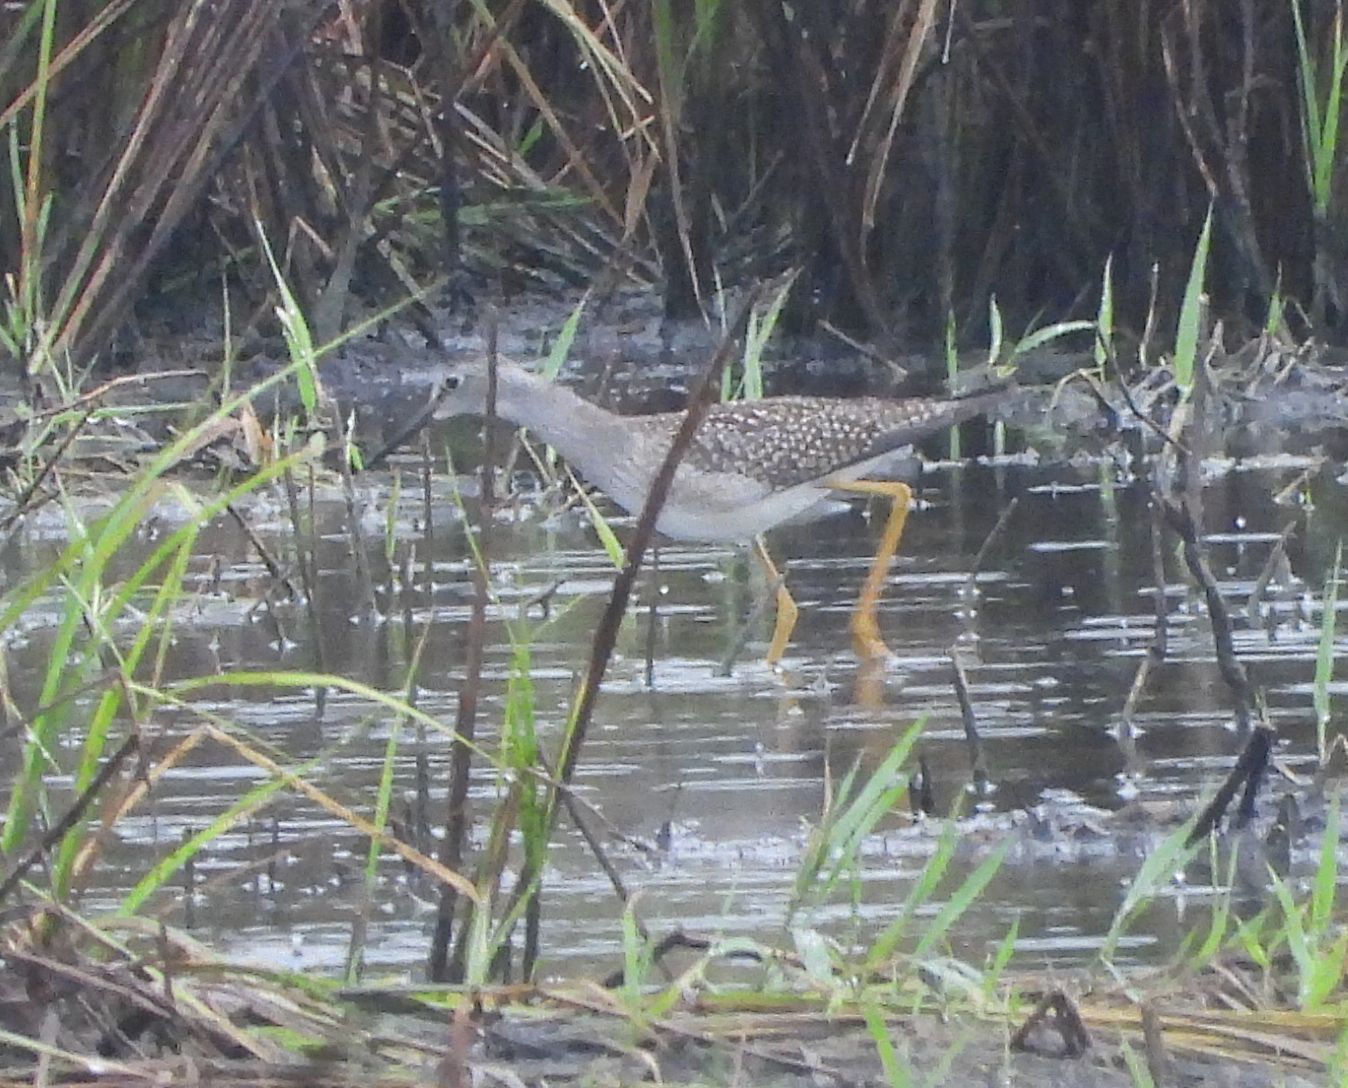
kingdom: Animalia
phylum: Chordata
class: Aves
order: Charadriiformes
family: Scolopacidae
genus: Tringa
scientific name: Tringa flavipes
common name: Lesser yellowlegs
